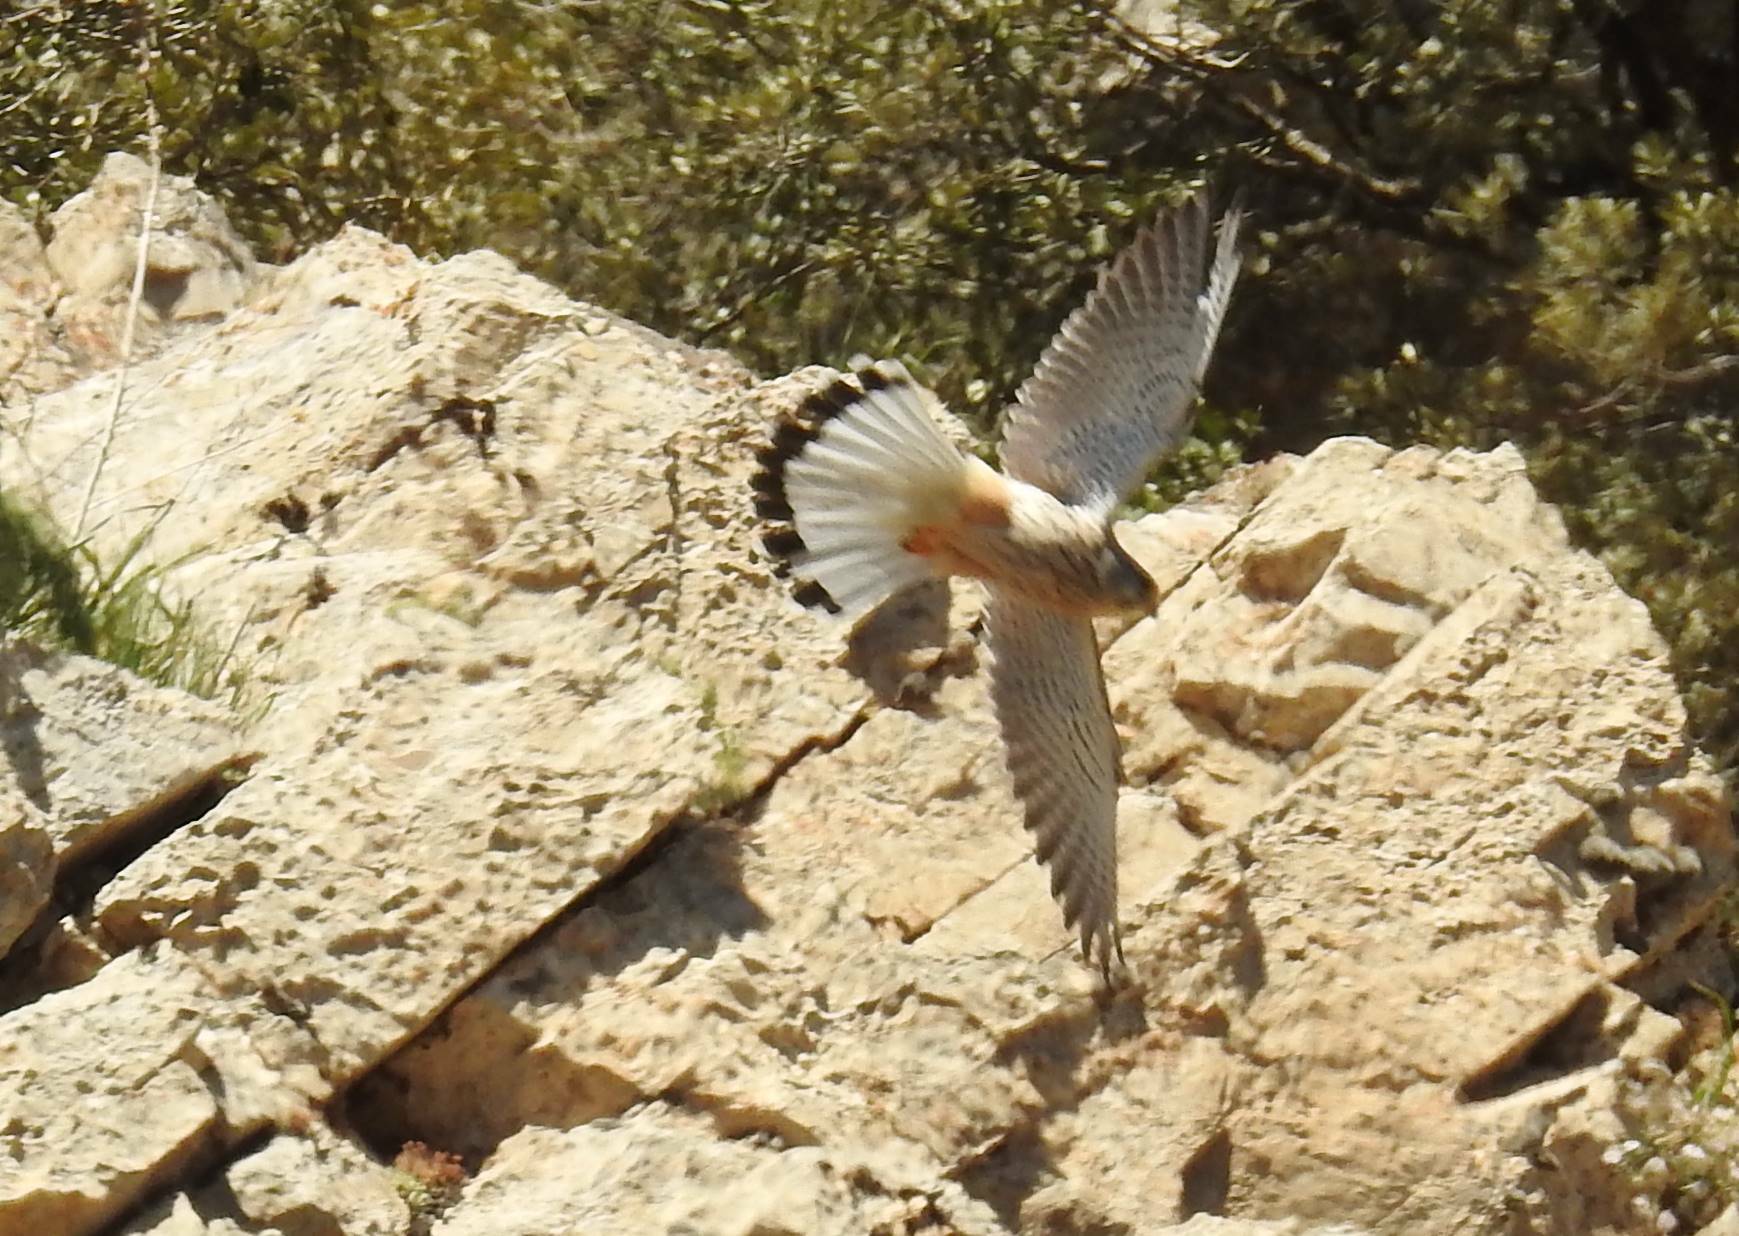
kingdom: Animalia
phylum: Chordata
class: Aves
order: Falconiformes
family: Falconidae
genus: Falco
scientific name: Falco naumanni
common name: Lesser kestrel
